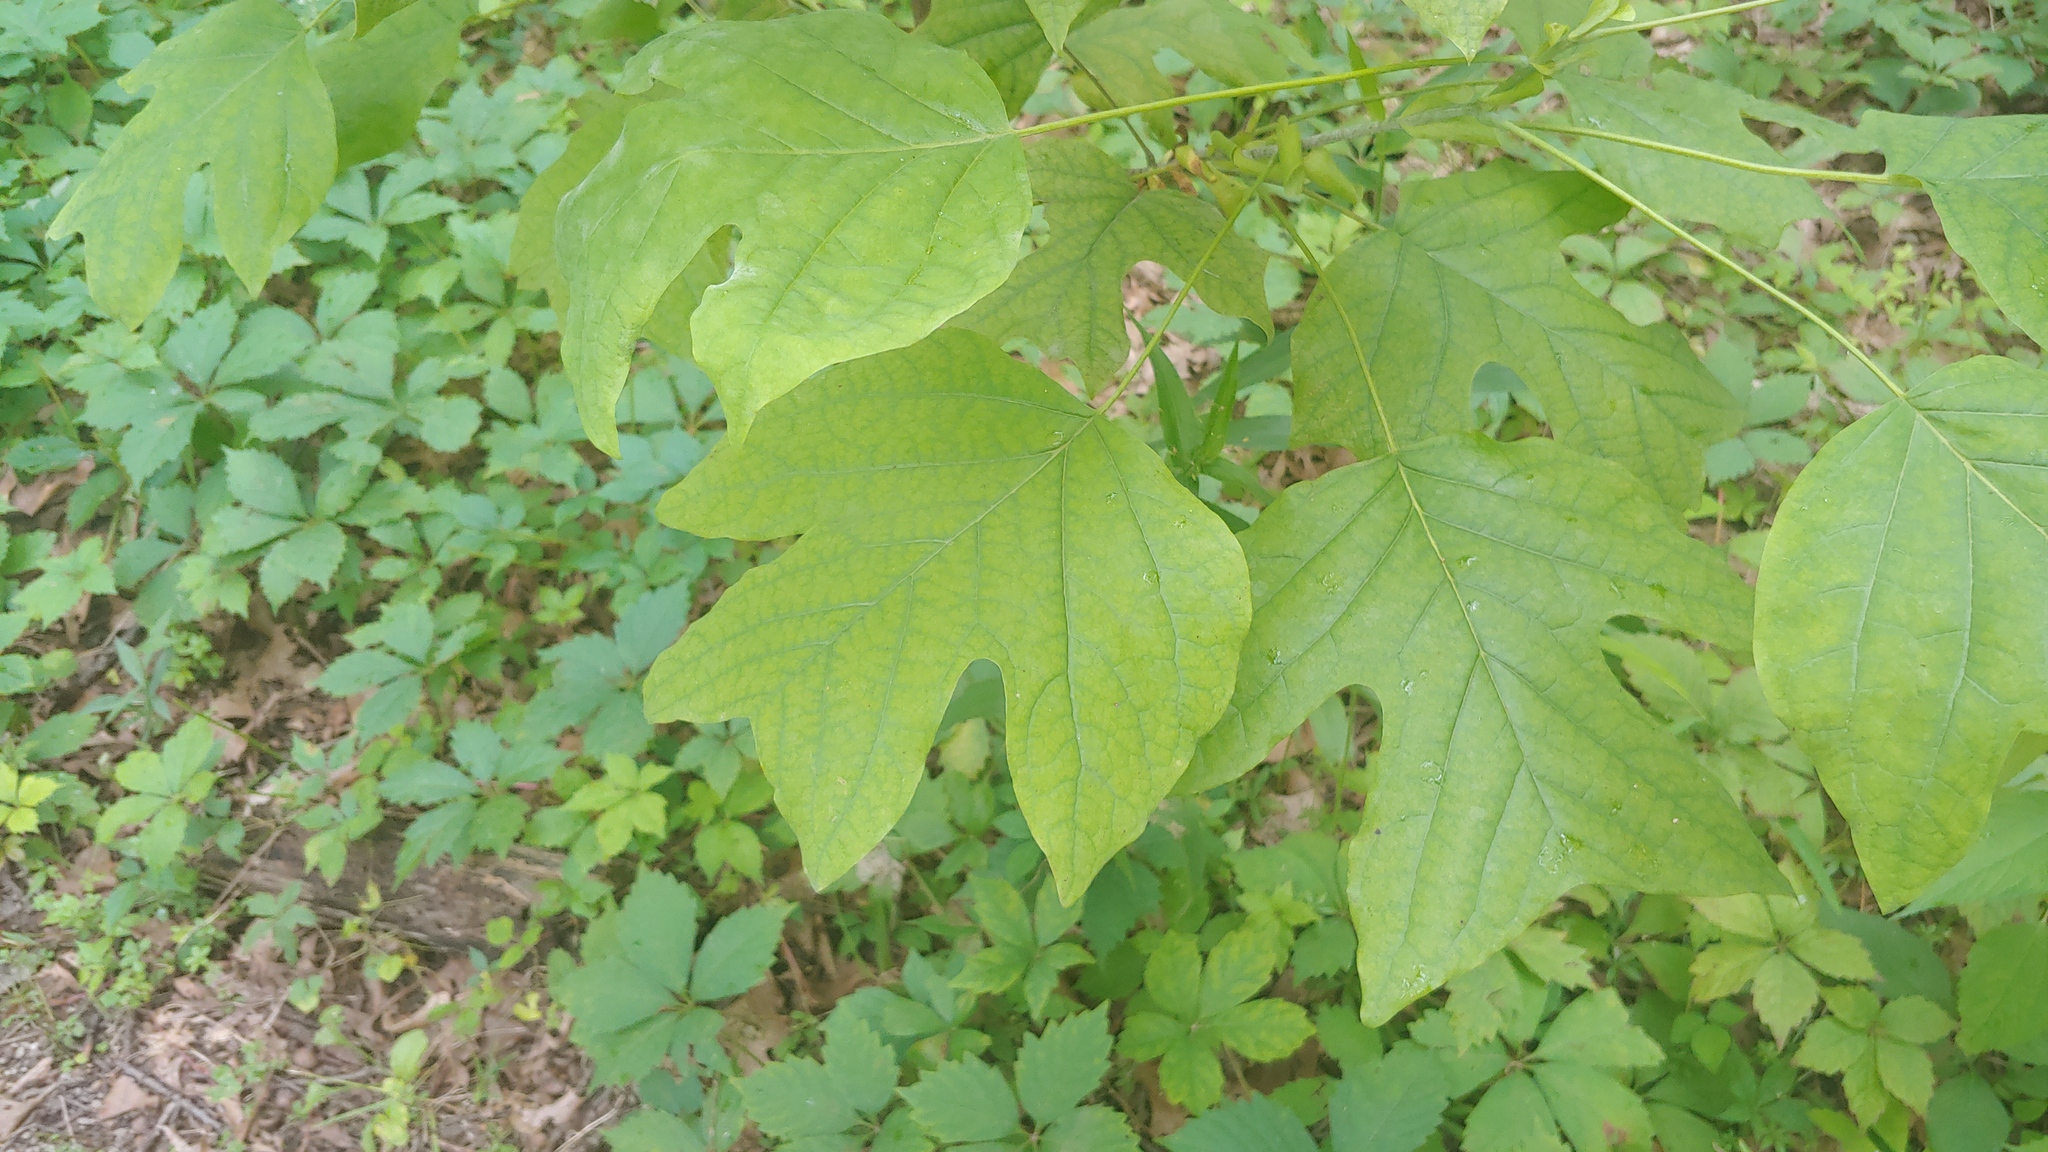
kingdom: Plantae
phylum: Tracheophyta
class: Magnoliopsida
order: Magnoliales
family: Magnoliaceae
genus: Liriodendron
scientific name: Liriodendron tulipifera
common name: Tulip tree
